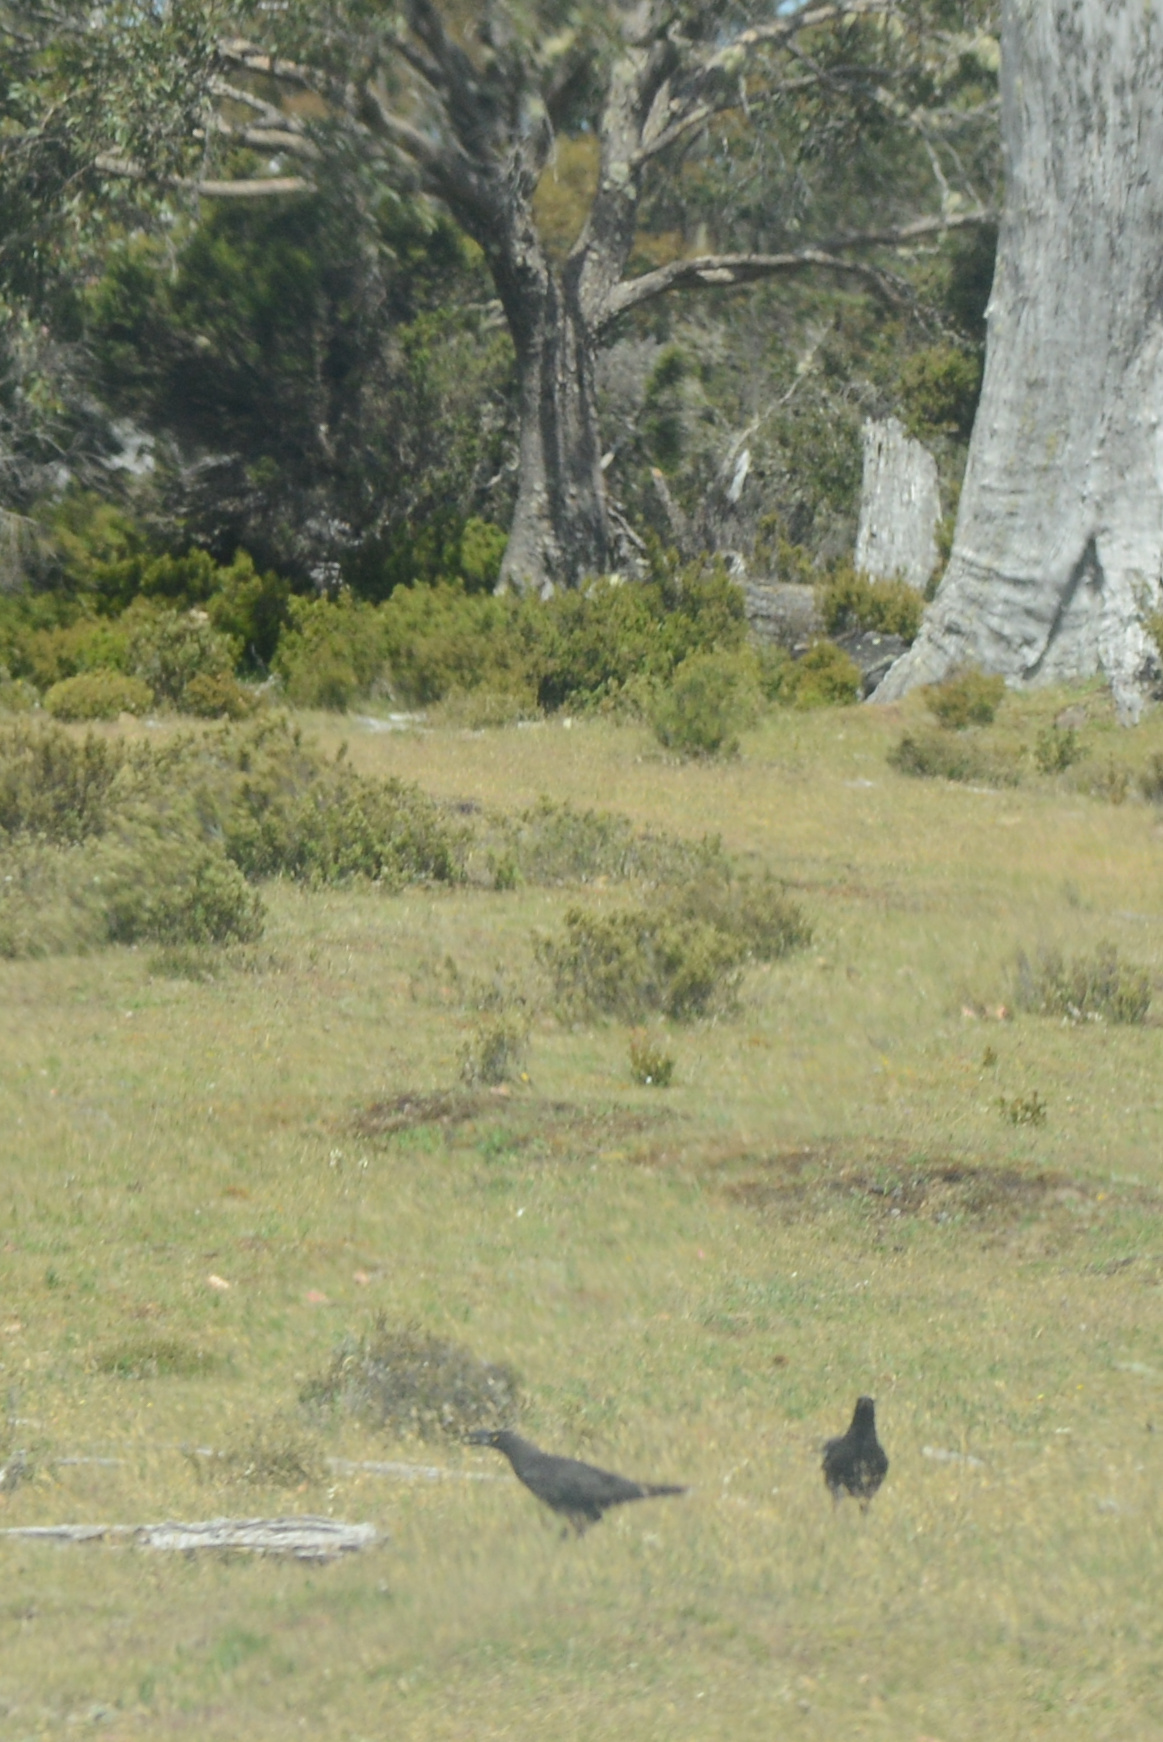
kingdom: Animalia
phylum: Chordata
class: Aves
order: Passeriformes
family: Cracticidae
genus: Strepera
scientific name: Strepera fuliginosa
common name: Black currawong
